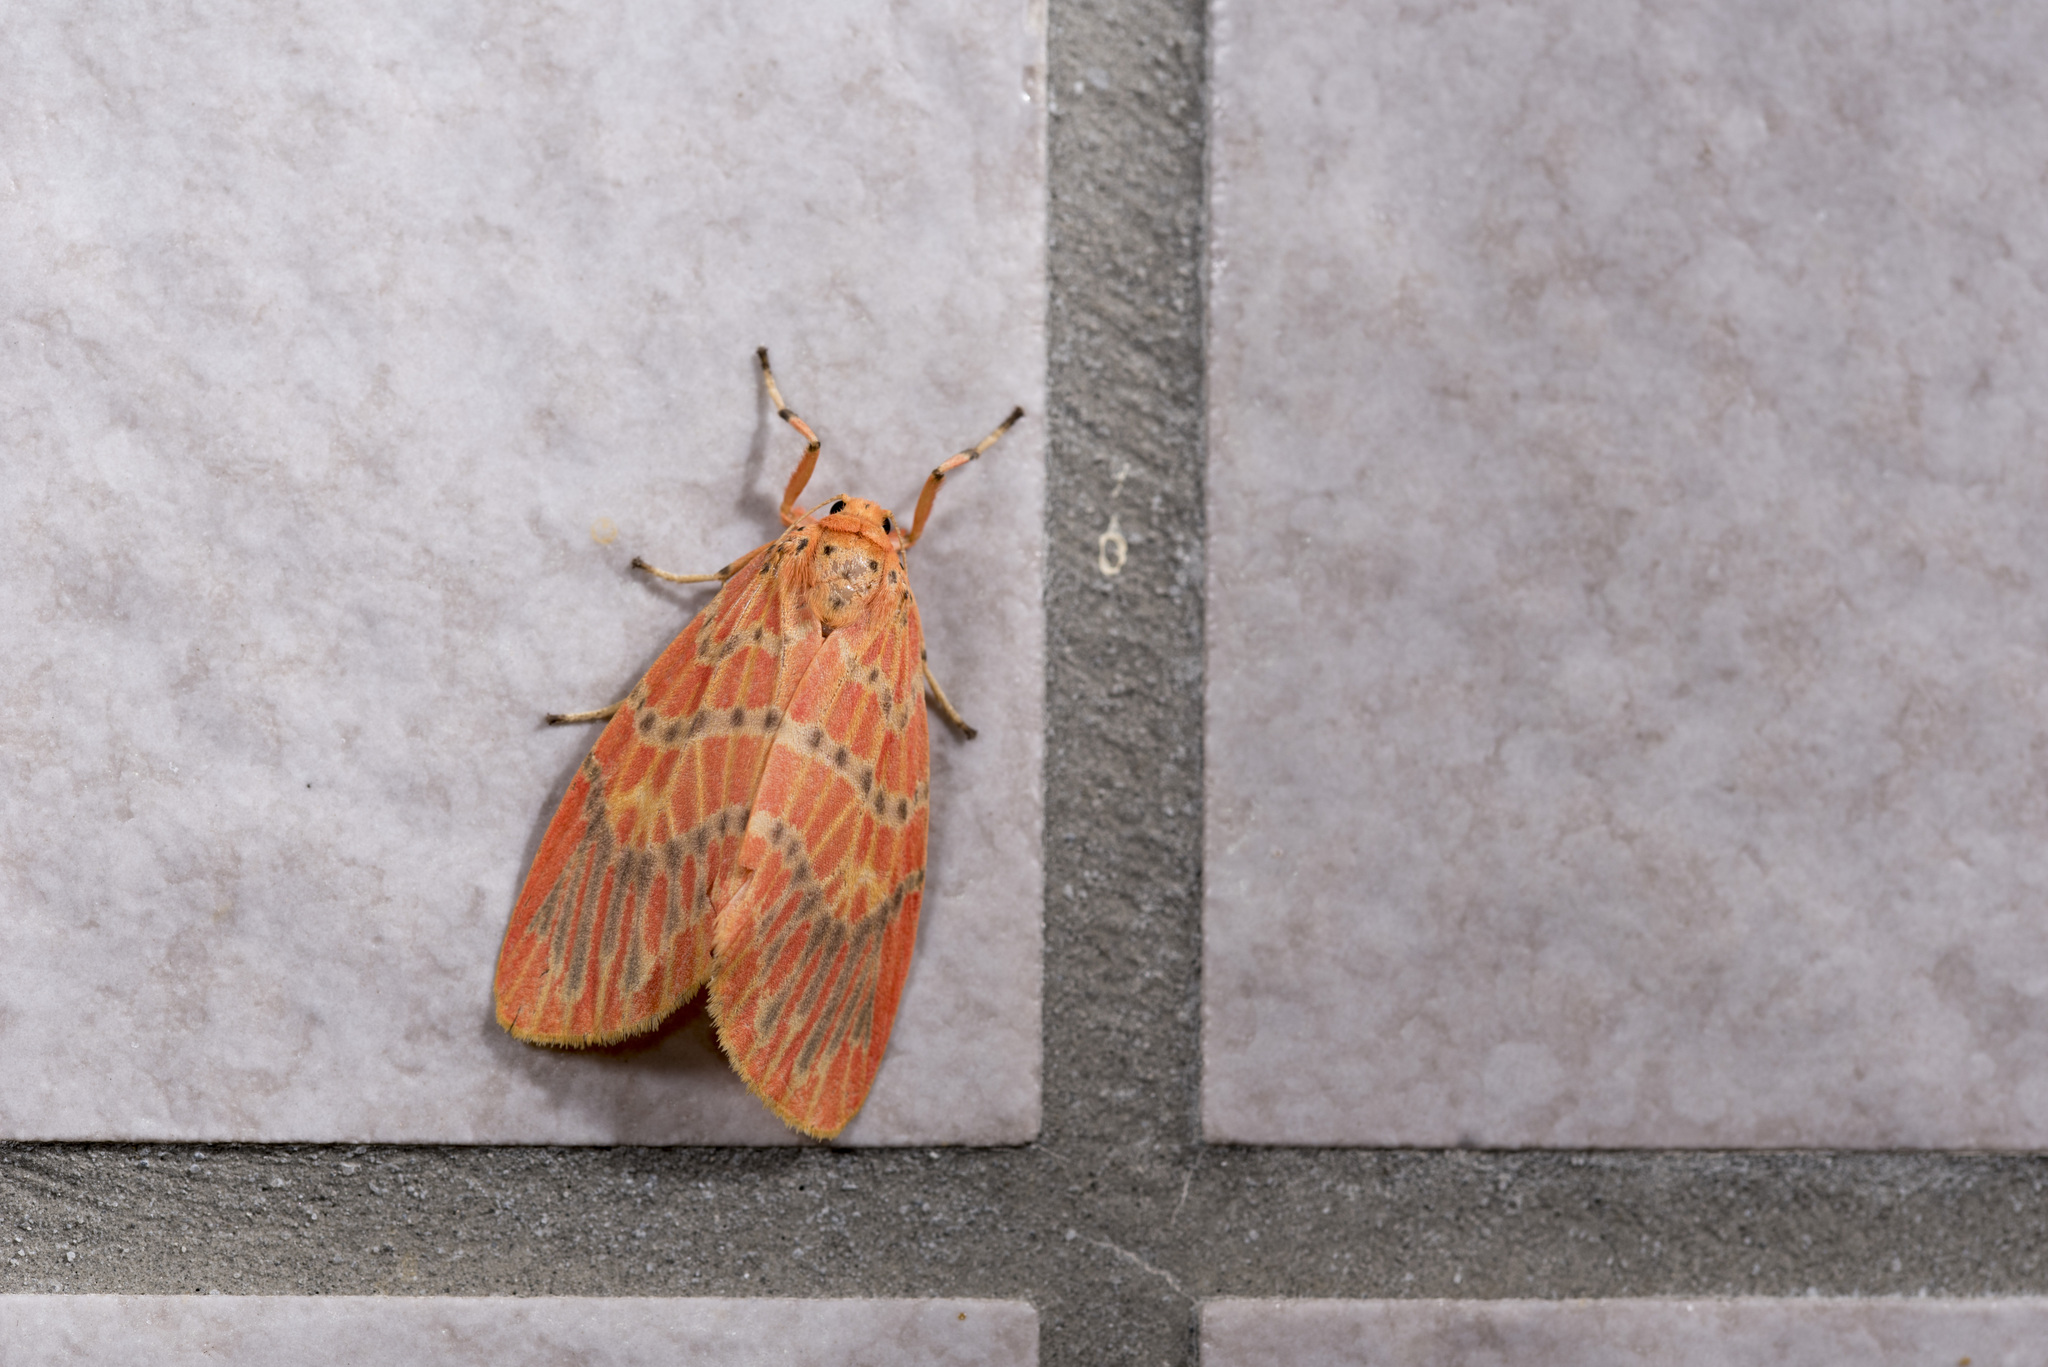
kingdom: Animalia
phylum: Arthropoda
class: Insecta
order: Lepidoptera
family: Erebidae
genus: Barsine
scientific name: Barsine sauteri
